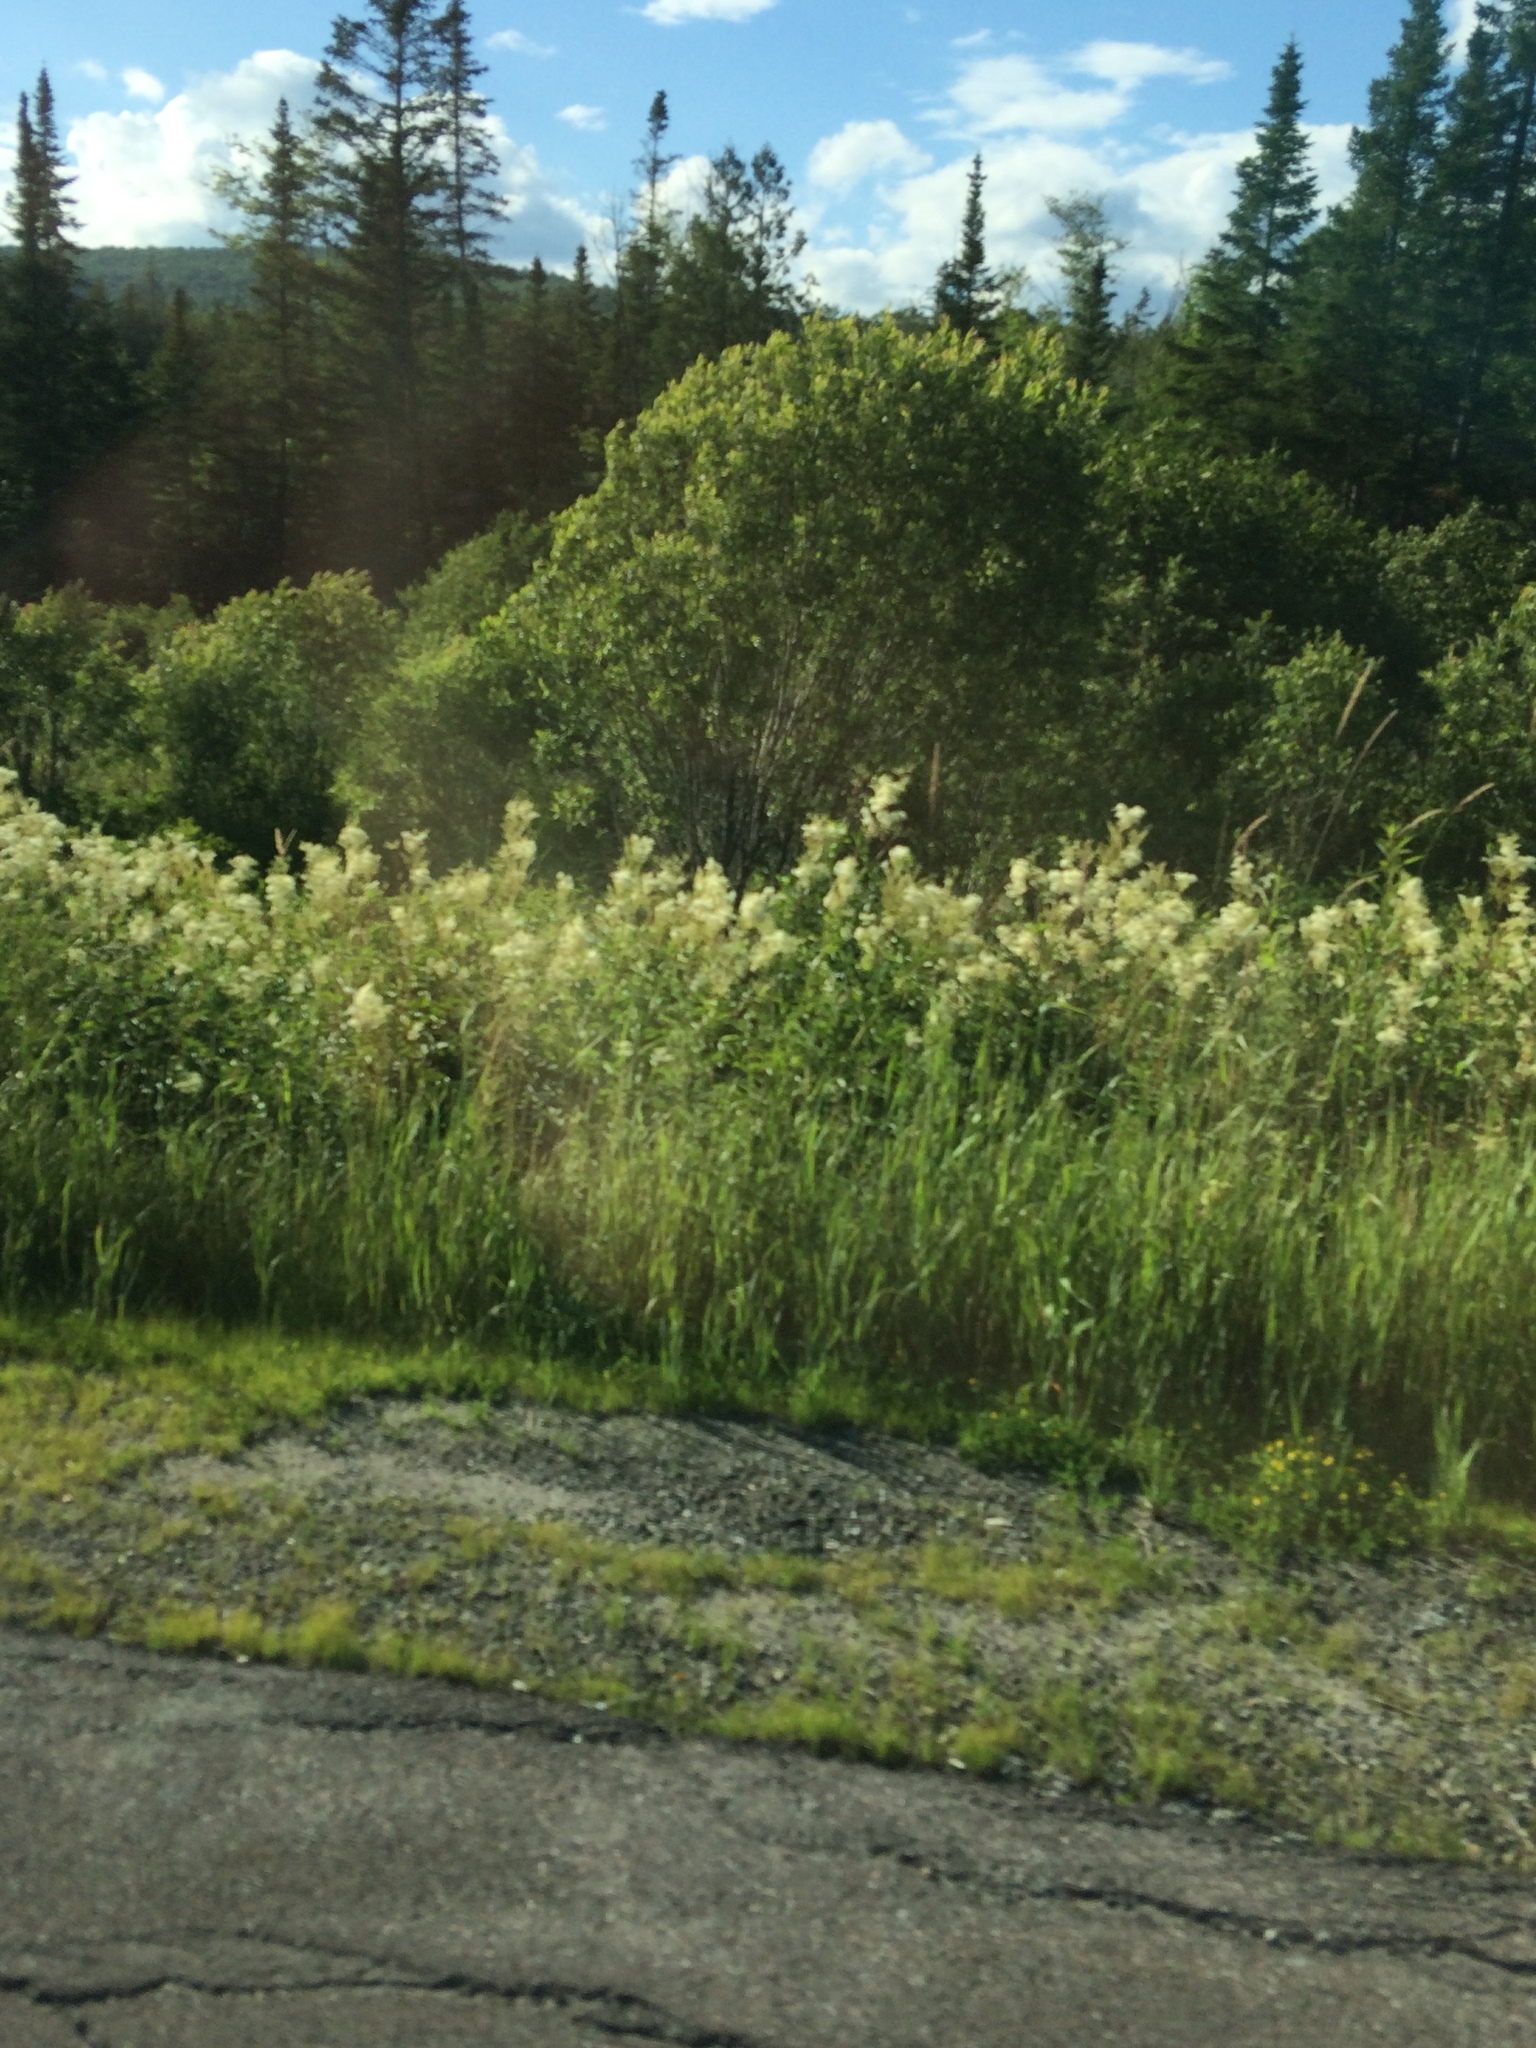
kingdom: Plantae
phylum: Tracheophyta
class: Magnoliopsida
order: Rosales
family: Rosaceae
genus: Filipendula
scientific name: Filipendula ulmaria
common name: Meadowsweet
